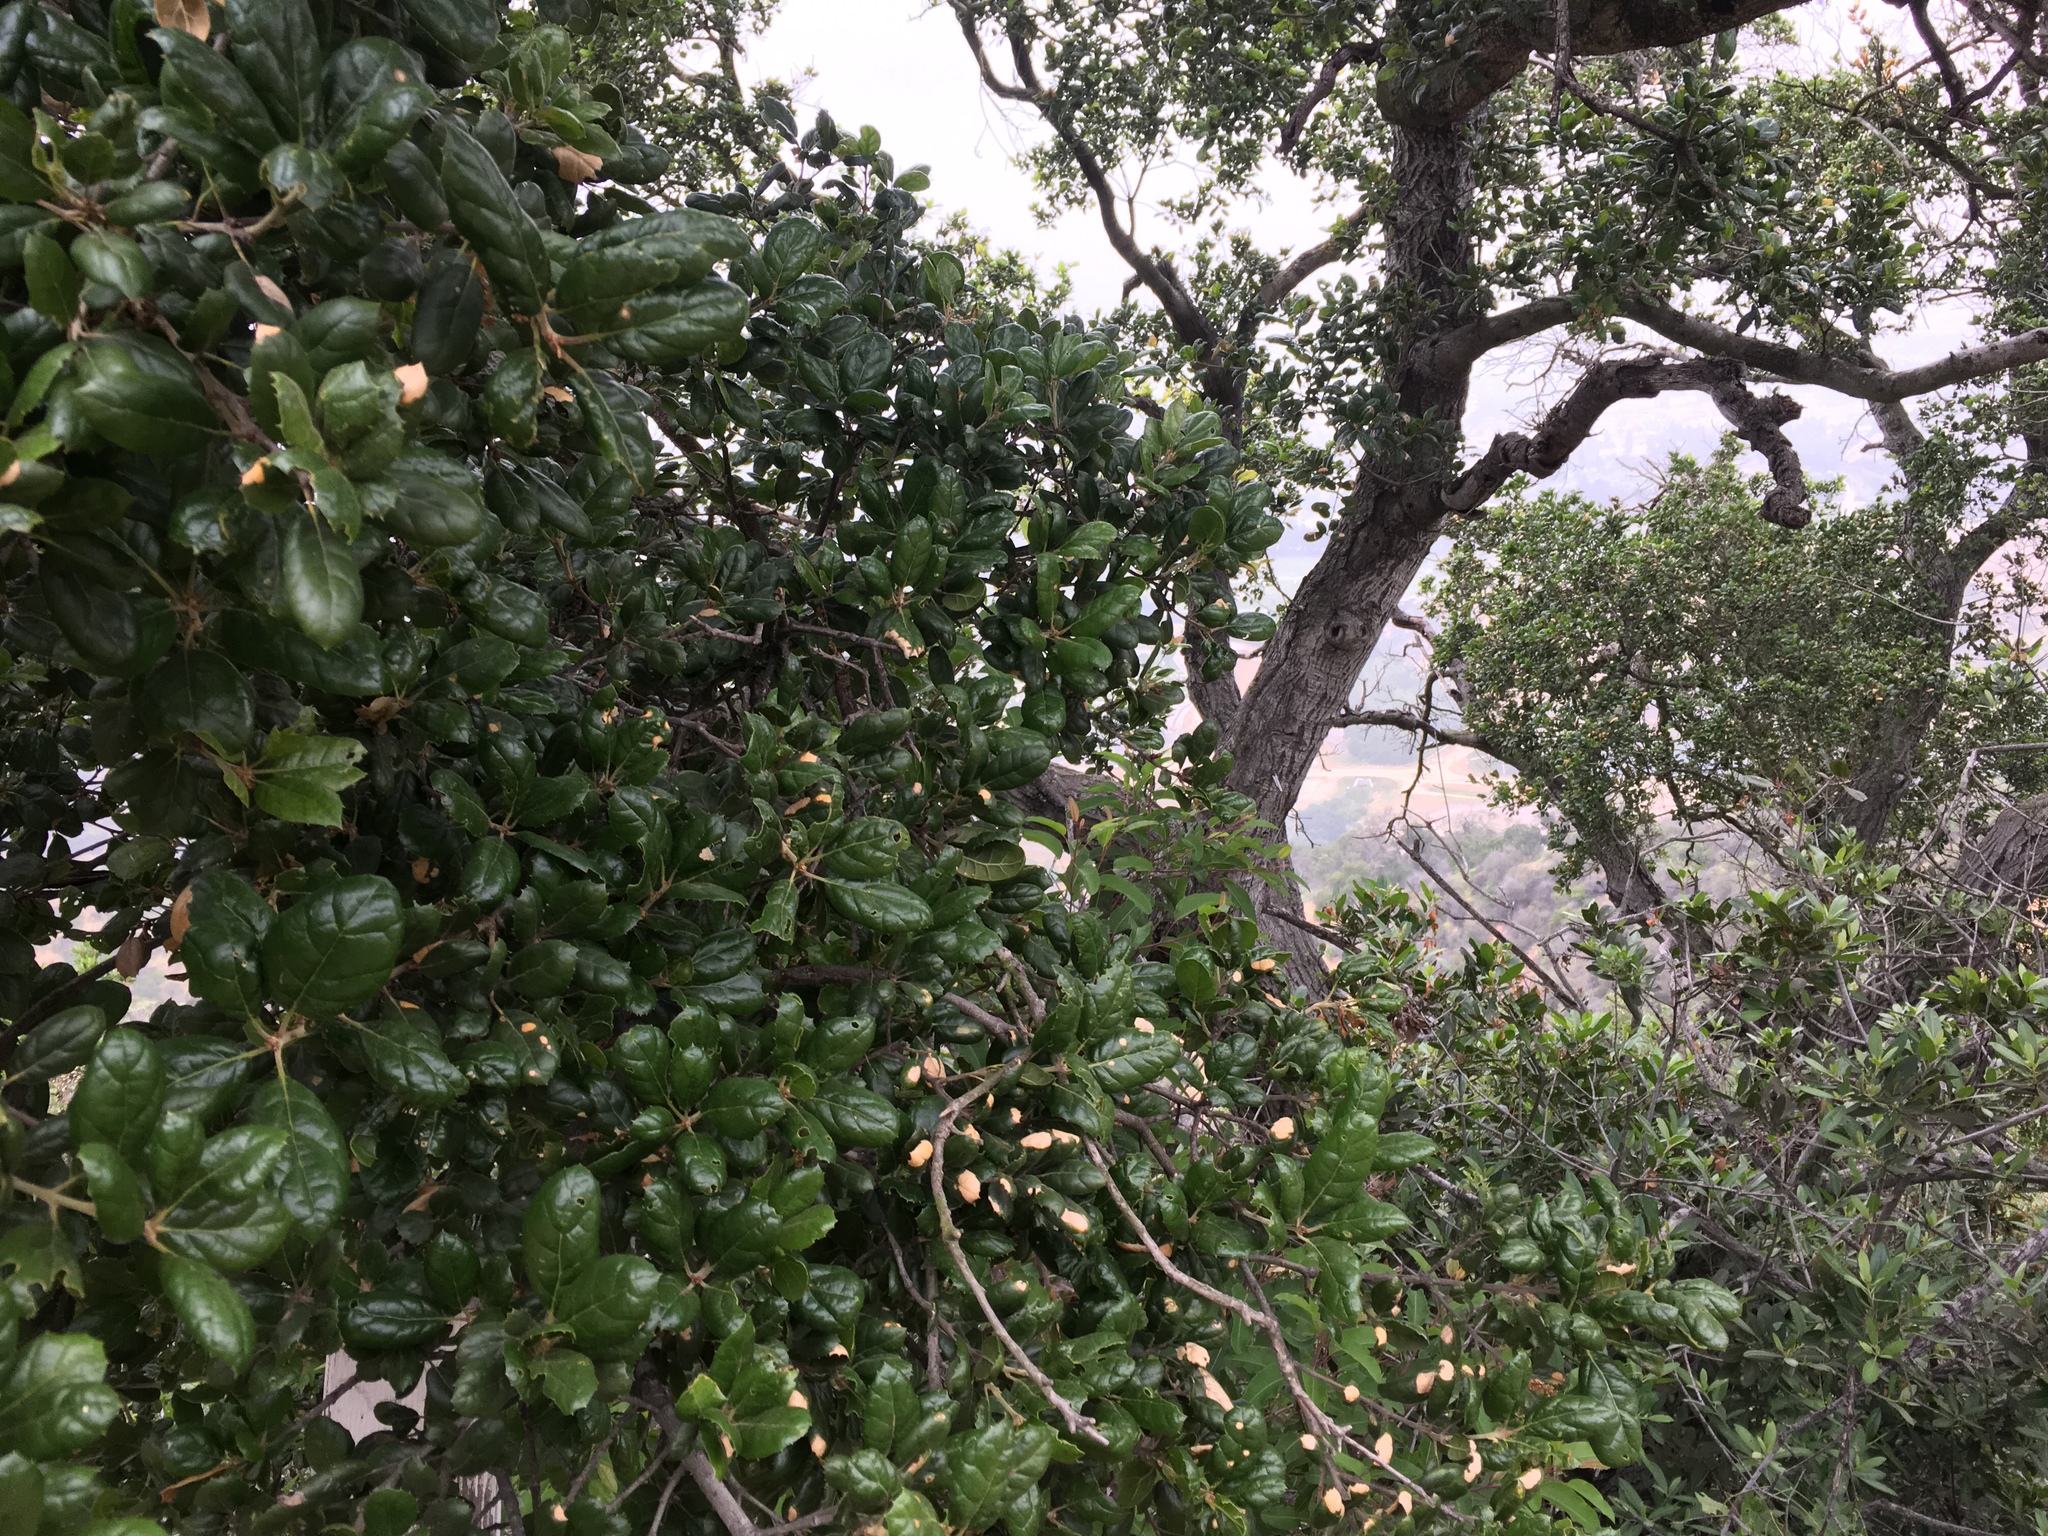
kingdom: Plantae
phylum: Tracheophyta
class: Magnoliopsida
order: Fagales
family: Fagaceae
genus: Quercus
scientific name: Quercus agrifolia
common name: California live oak
